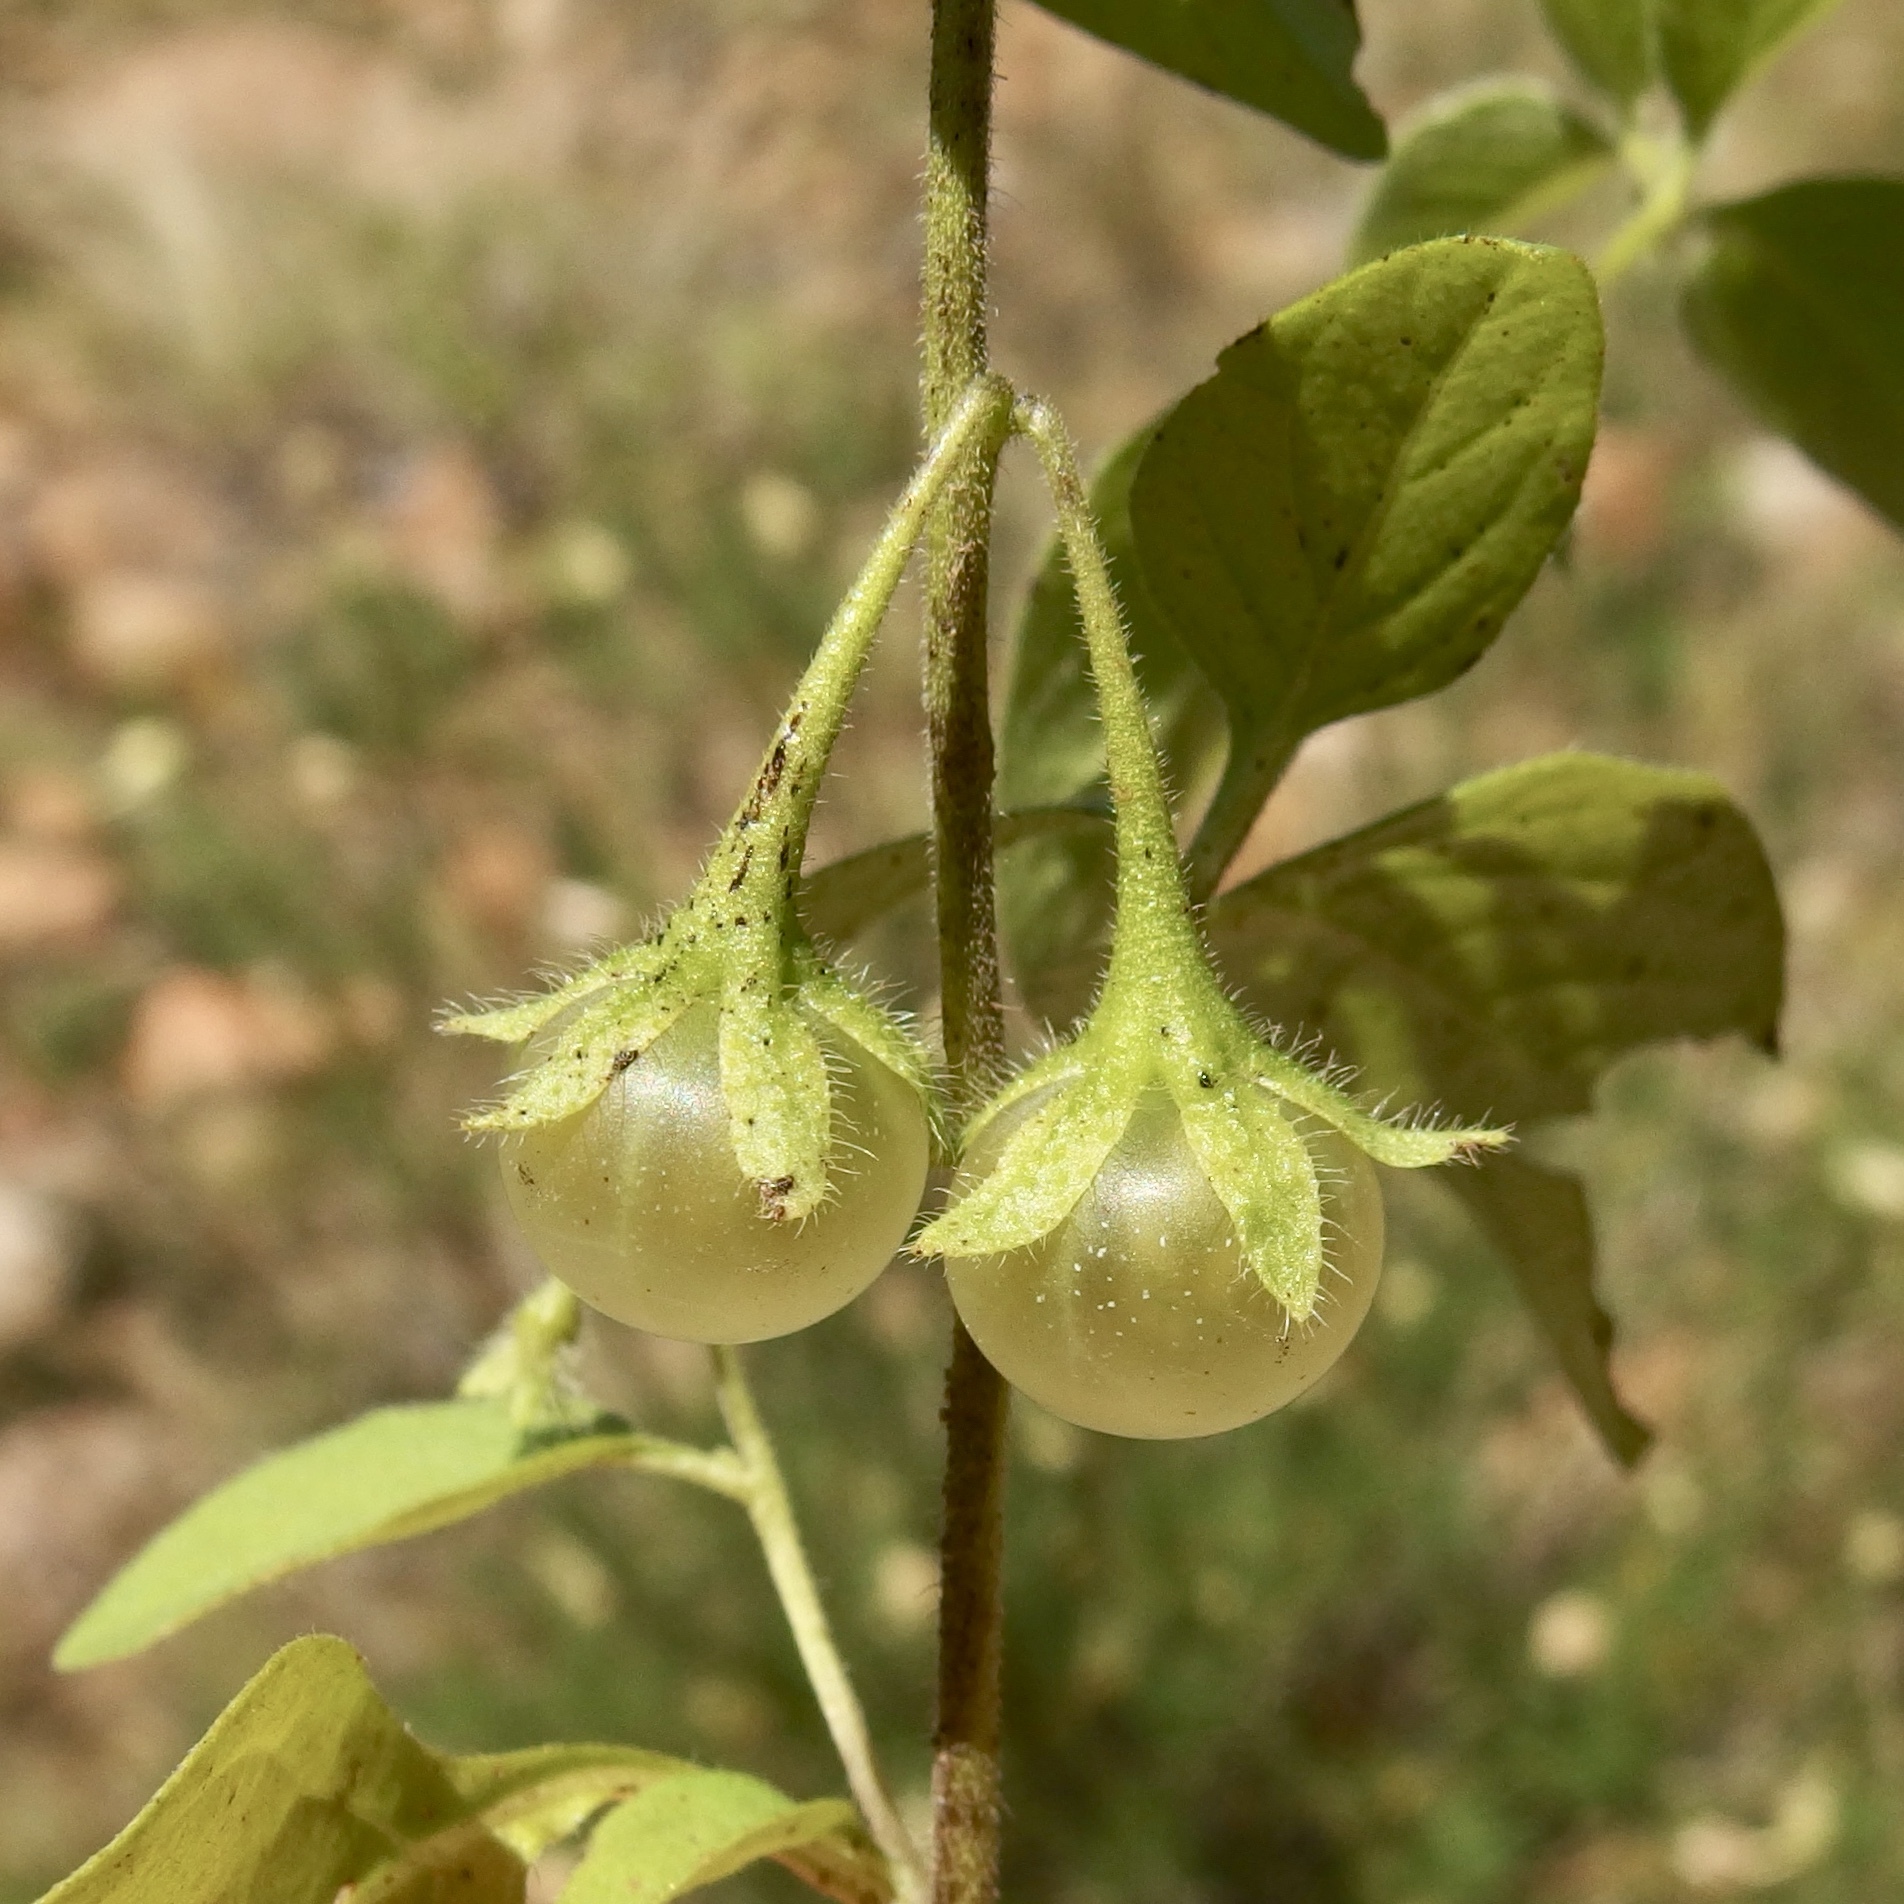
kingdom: Plantae
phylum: Tracheophyta
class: Magnoliopsida
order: Solanales
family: Solanaceae
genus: Solanum
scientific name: Solanum deflexum
